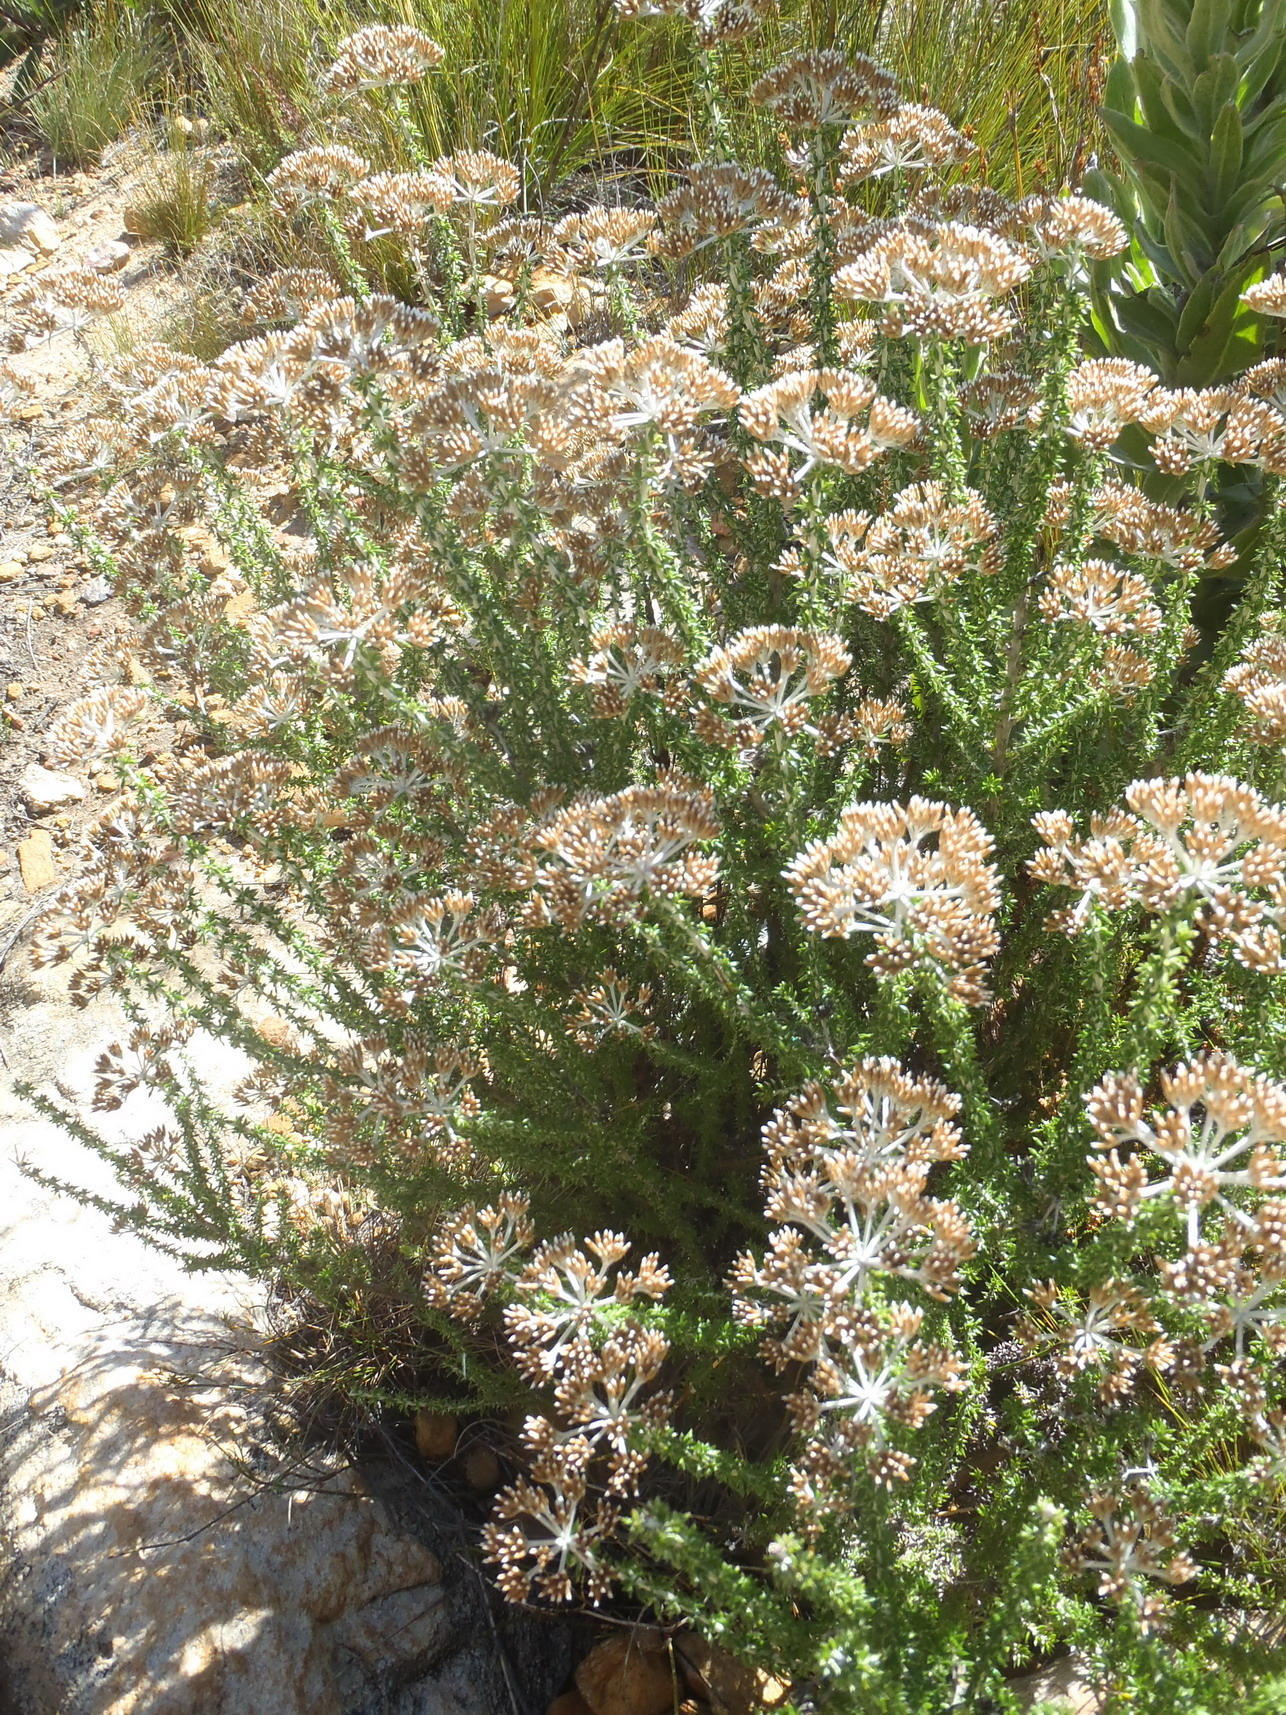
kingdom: Plantae
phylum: Tracheophyta
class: Magnoliopsida
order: Asterales
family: Asteraceae
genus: Metalasia
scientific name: Metalasia densa
